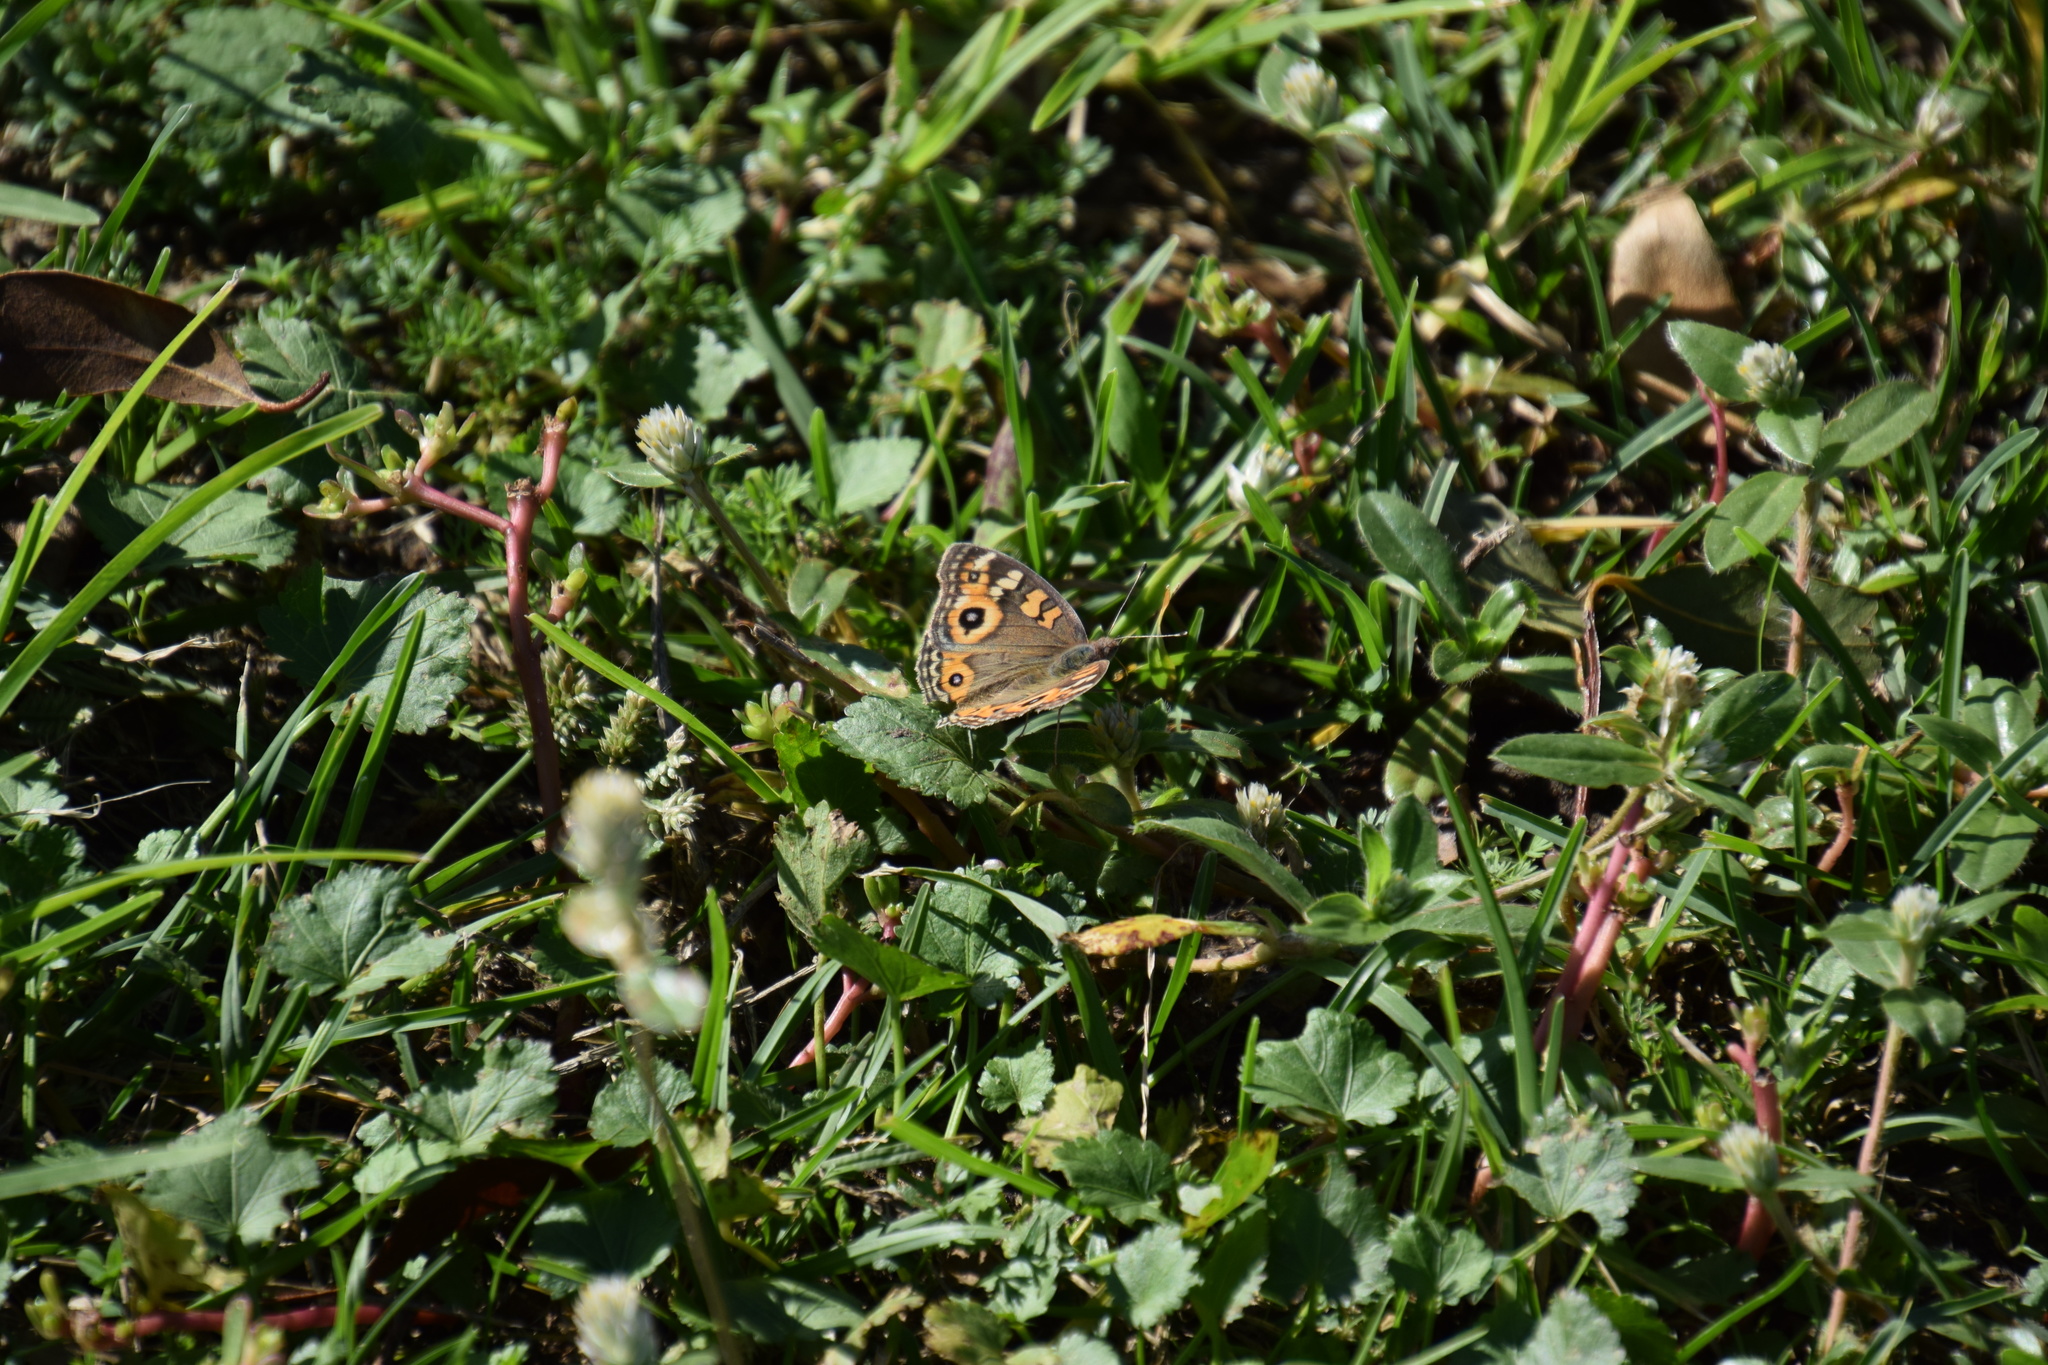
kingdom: Animalia
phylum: Arthropoda
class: Insecta
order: Lepidoptera
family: Nymphalidae
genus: Junonia
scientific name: Junonia villida
